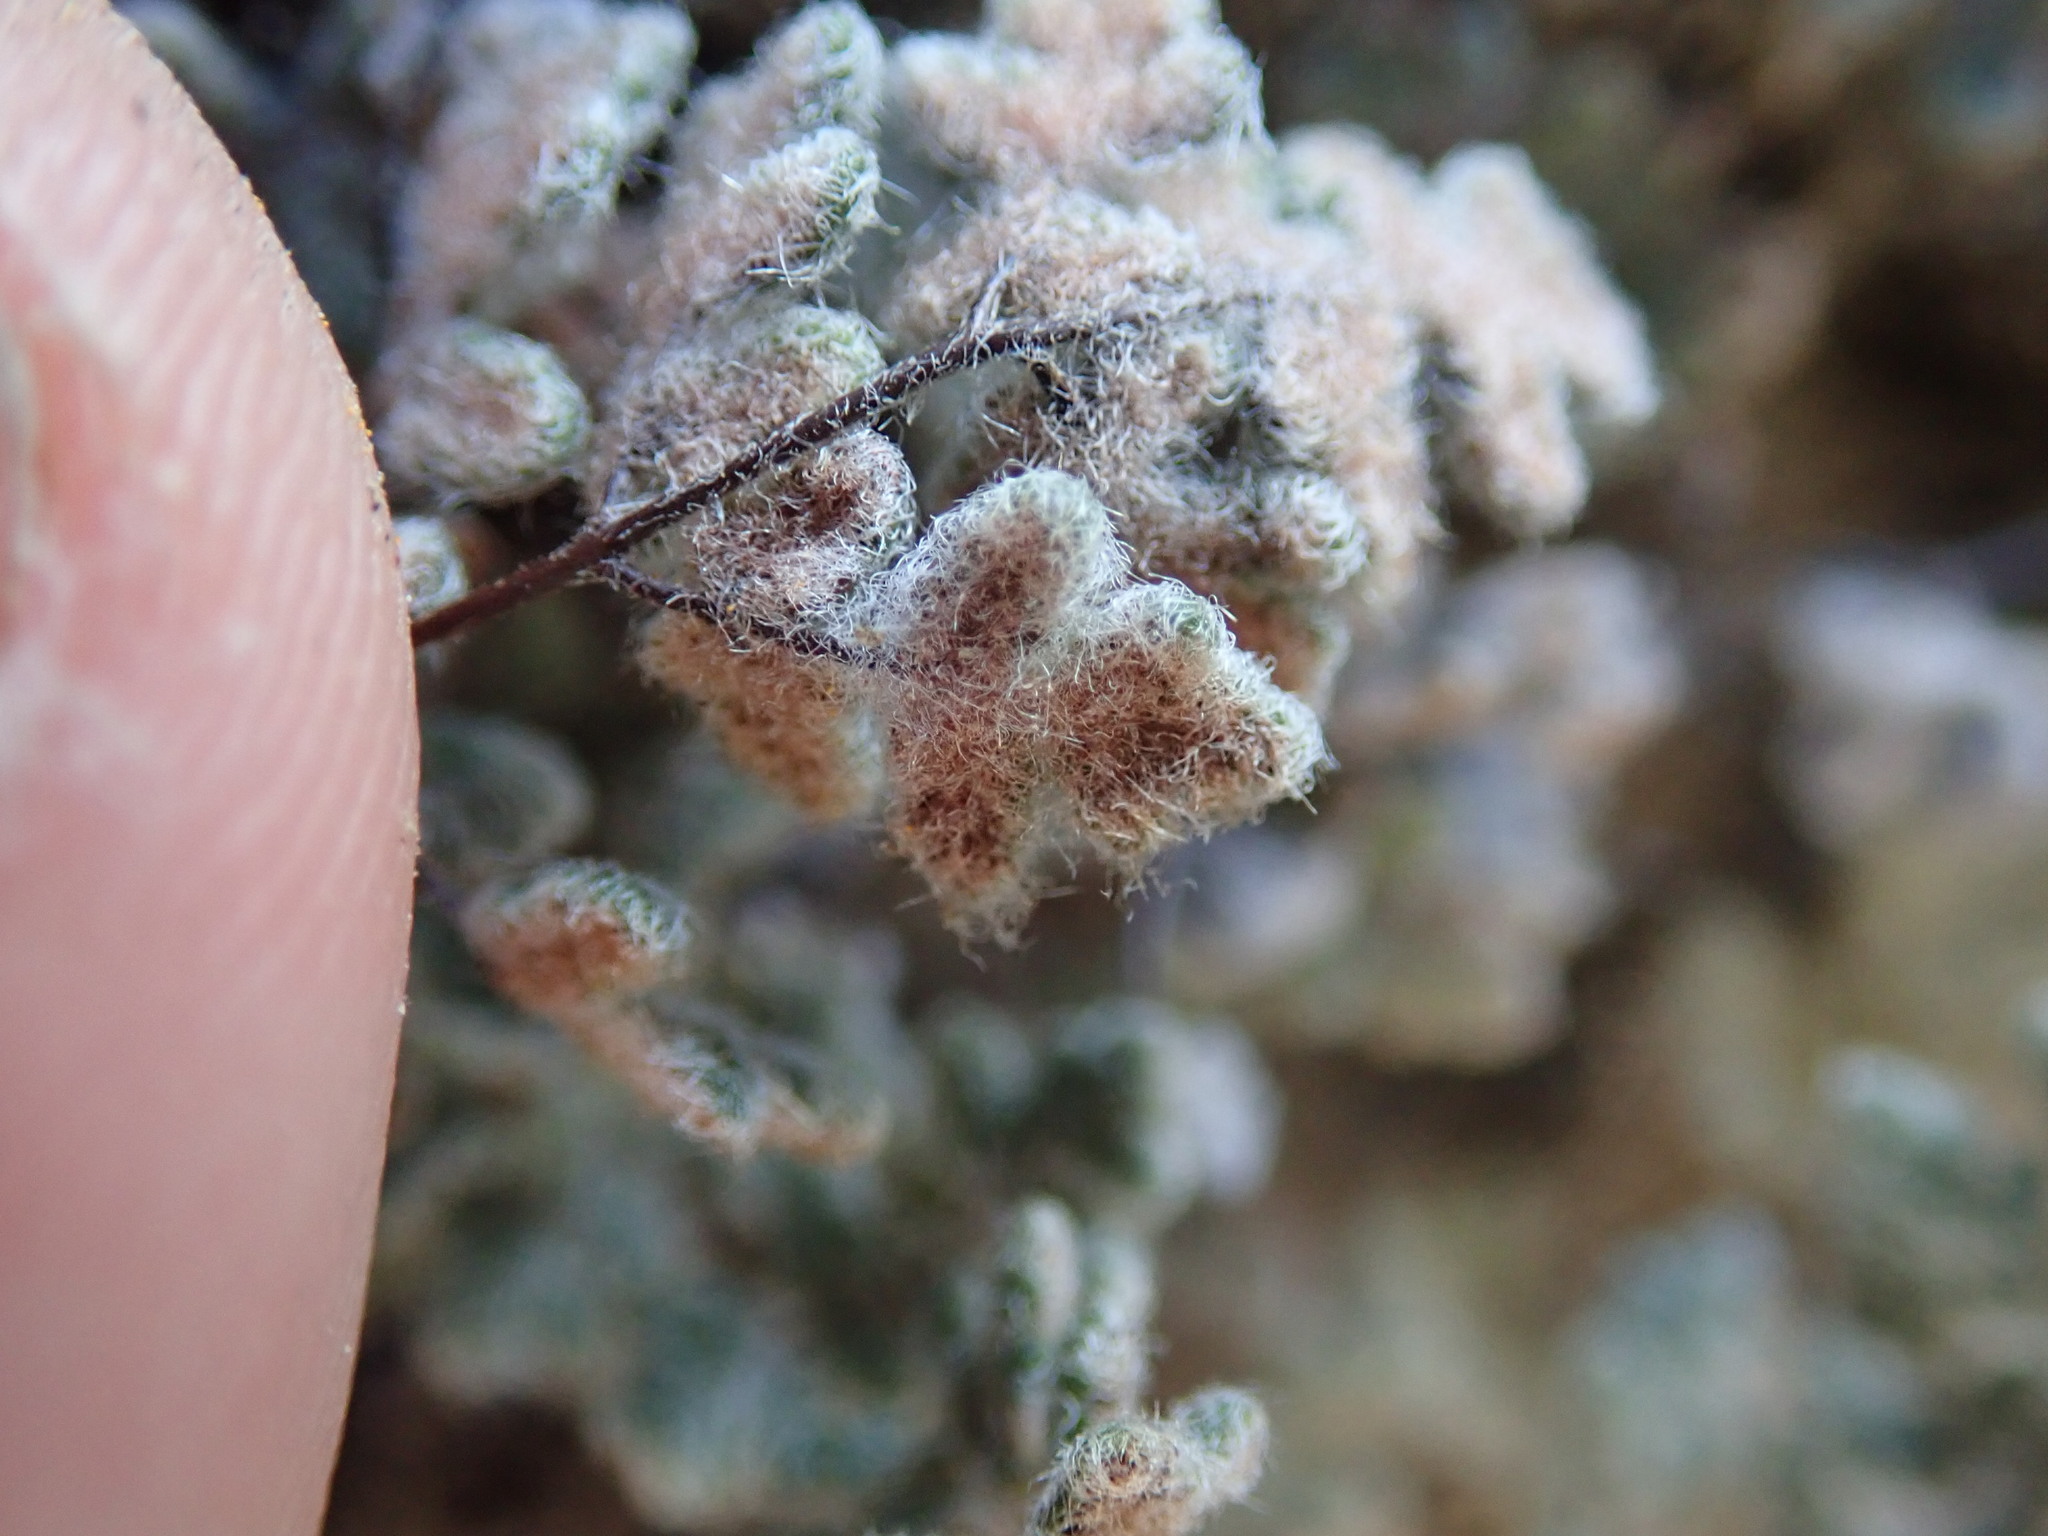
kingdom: Plantae
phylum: Tracheophyta
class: Polypodiopsida
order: Polypodiales
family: Pteridaceae
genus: Myriopteris
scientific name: Myriopteris parryi
